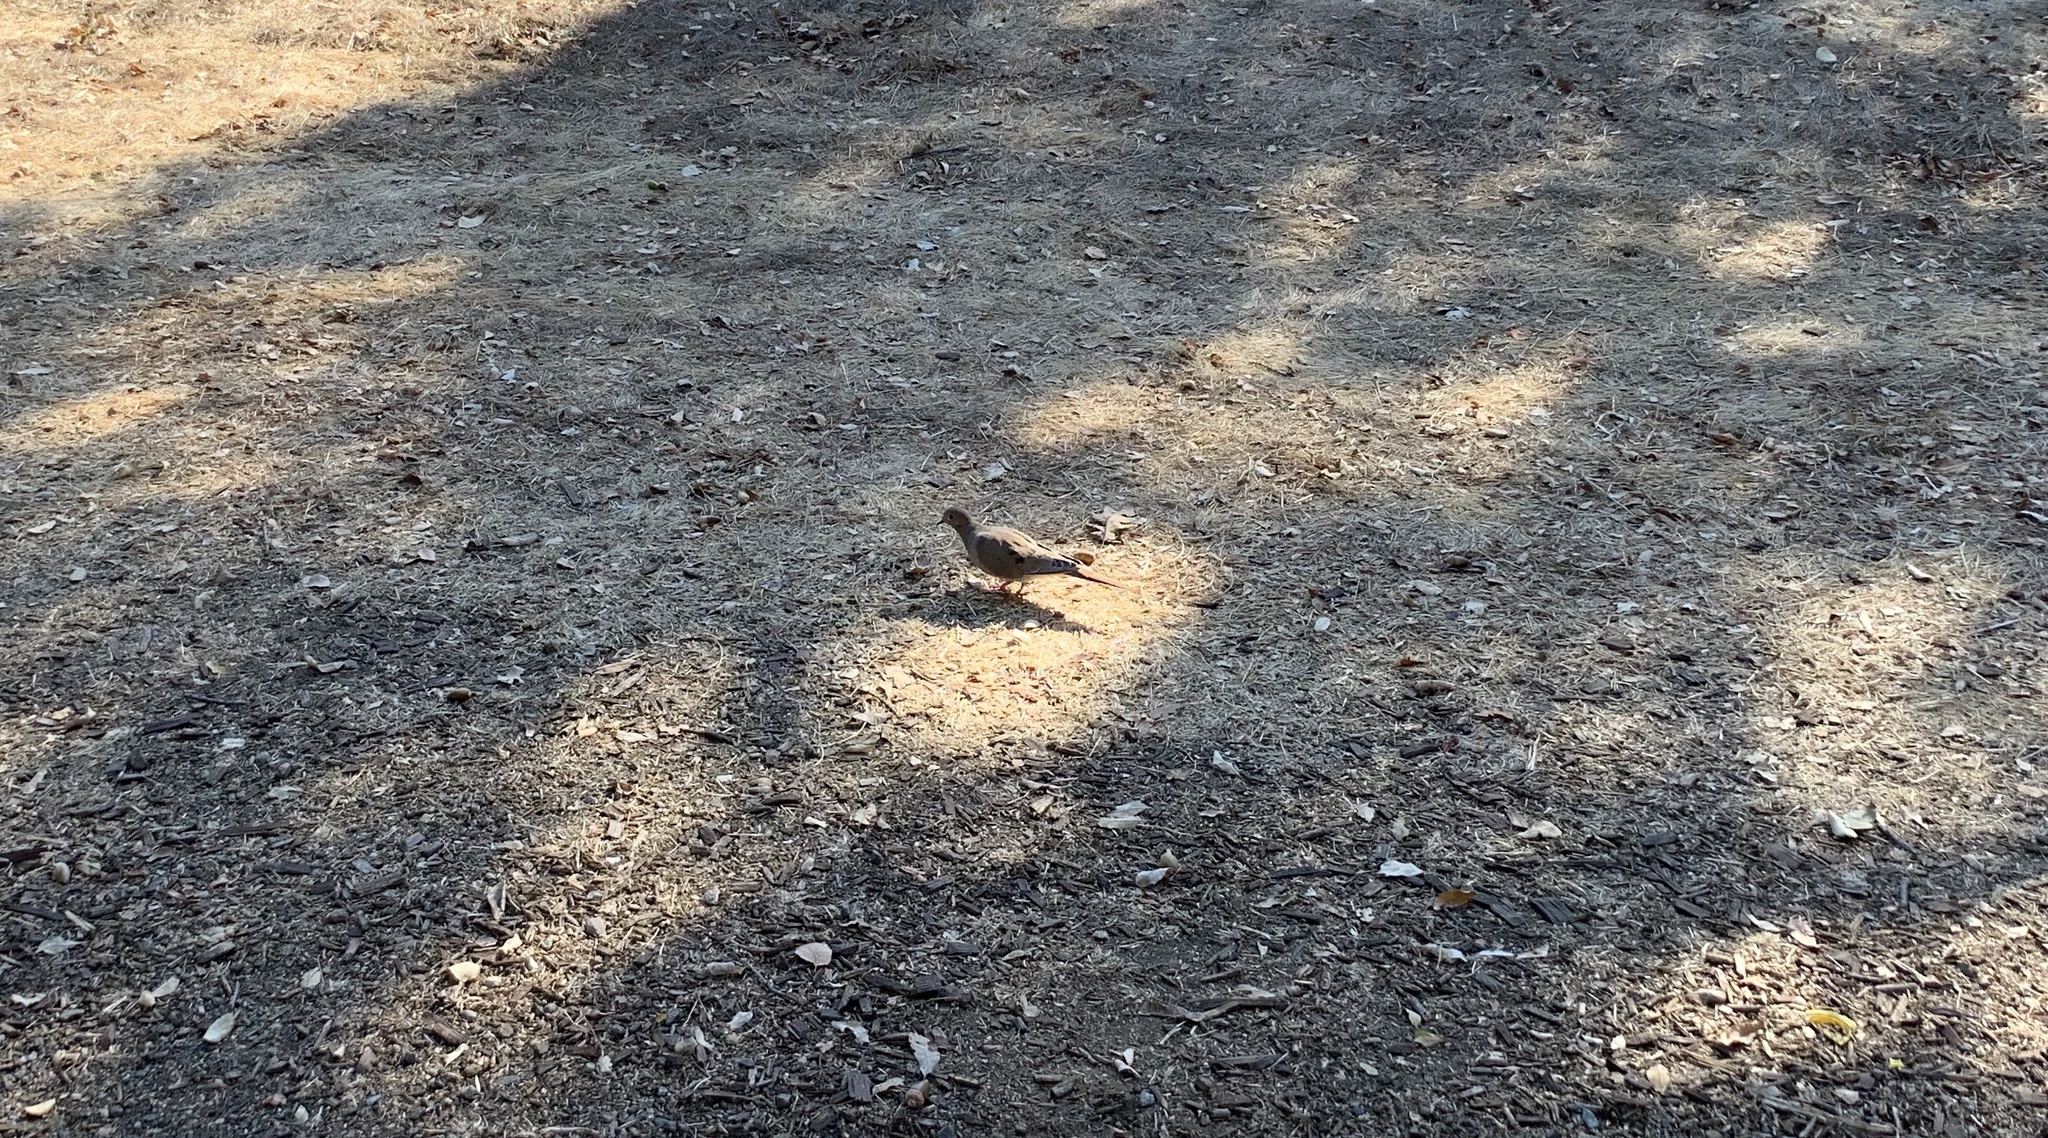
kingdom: Animalia
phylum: Chordata
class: Aves
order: Columbiformes
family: Columbidae
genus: Zenaida
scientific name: Zenaida macroura
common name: Mourning dove
